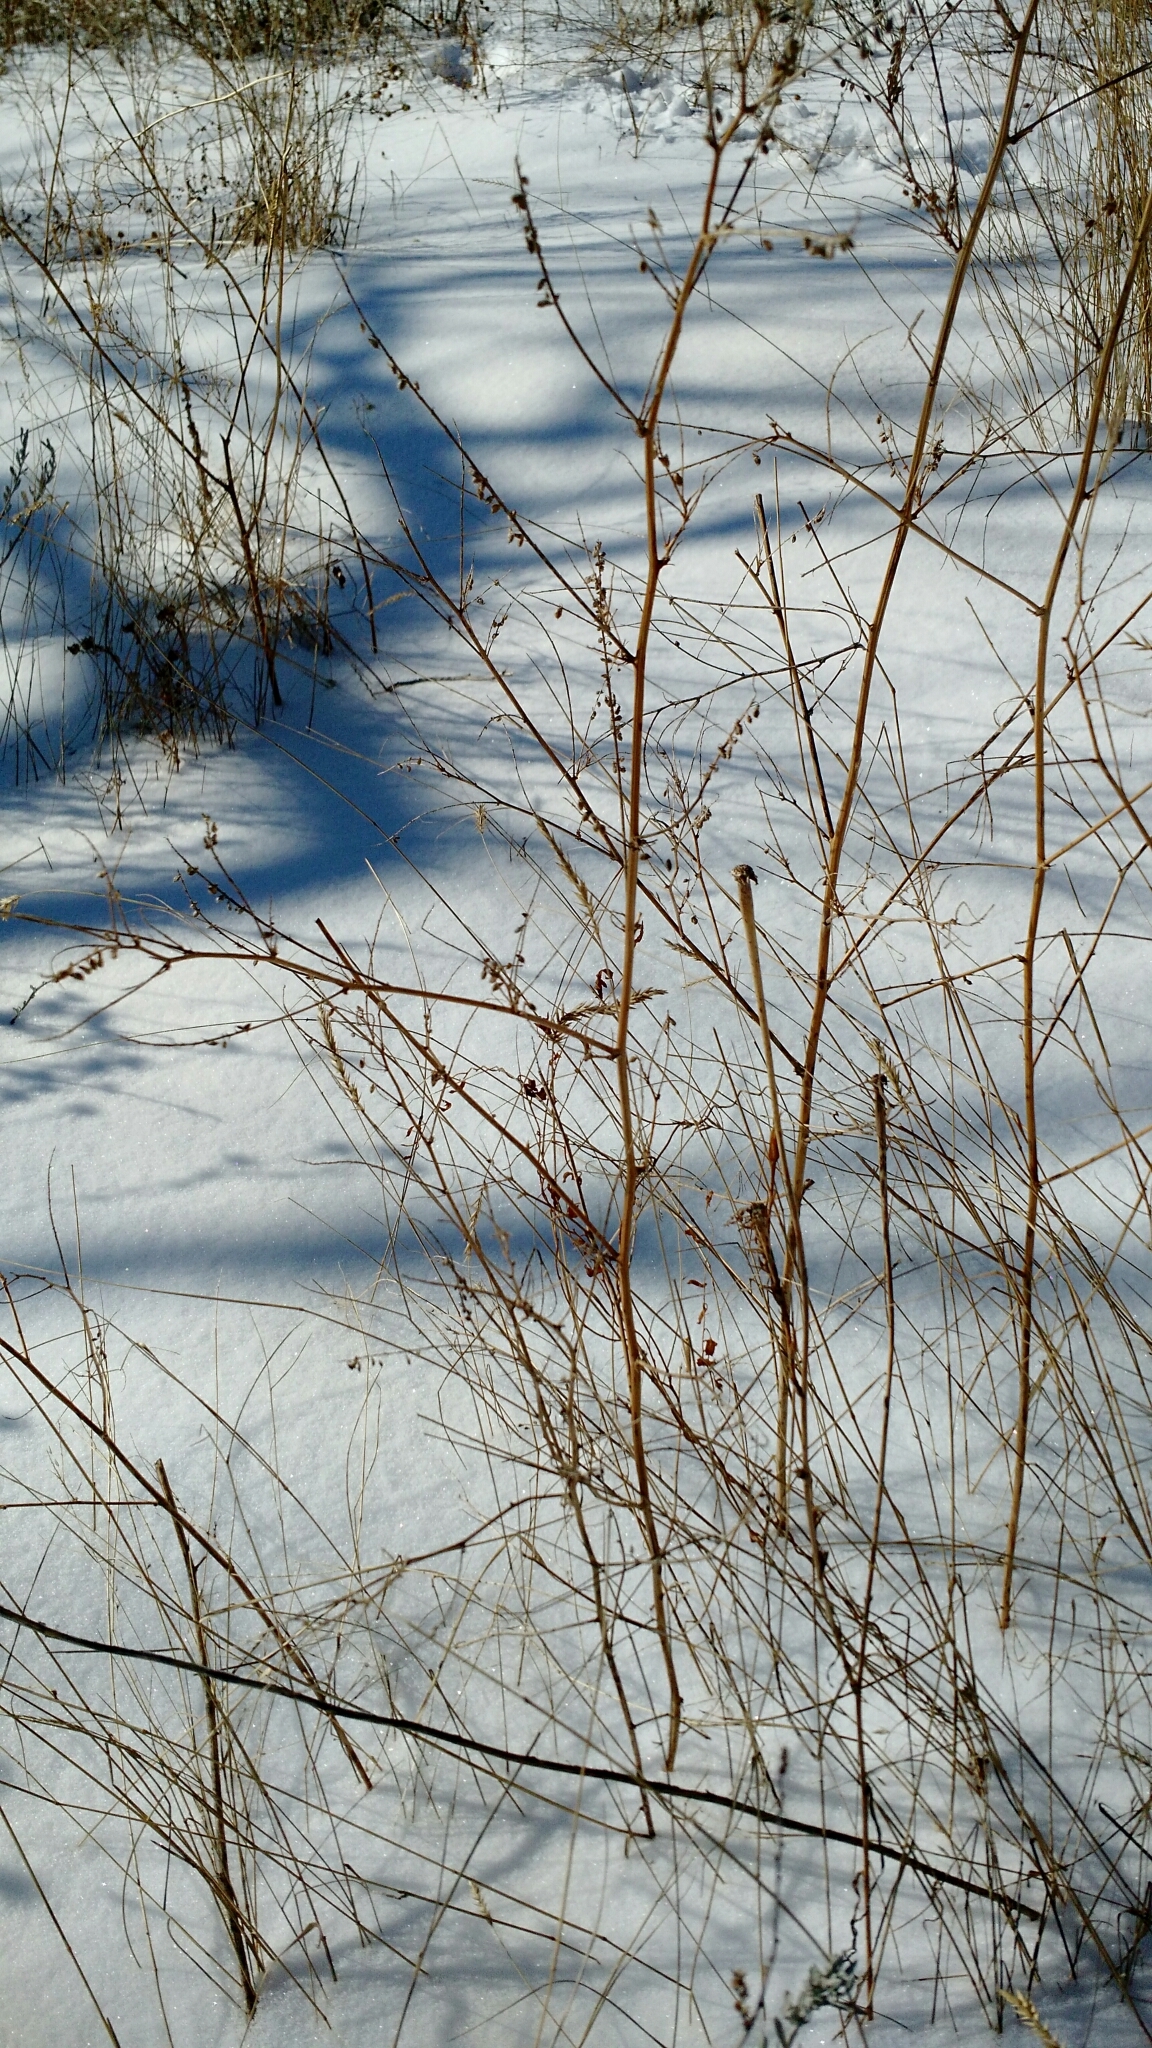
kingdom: Plantae
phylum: Tracheophyta
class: Magnoliopsida
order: Fabales
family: Fabaceae
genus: Melilotus
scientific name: Melilotus officinalis
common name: Sweetclover
